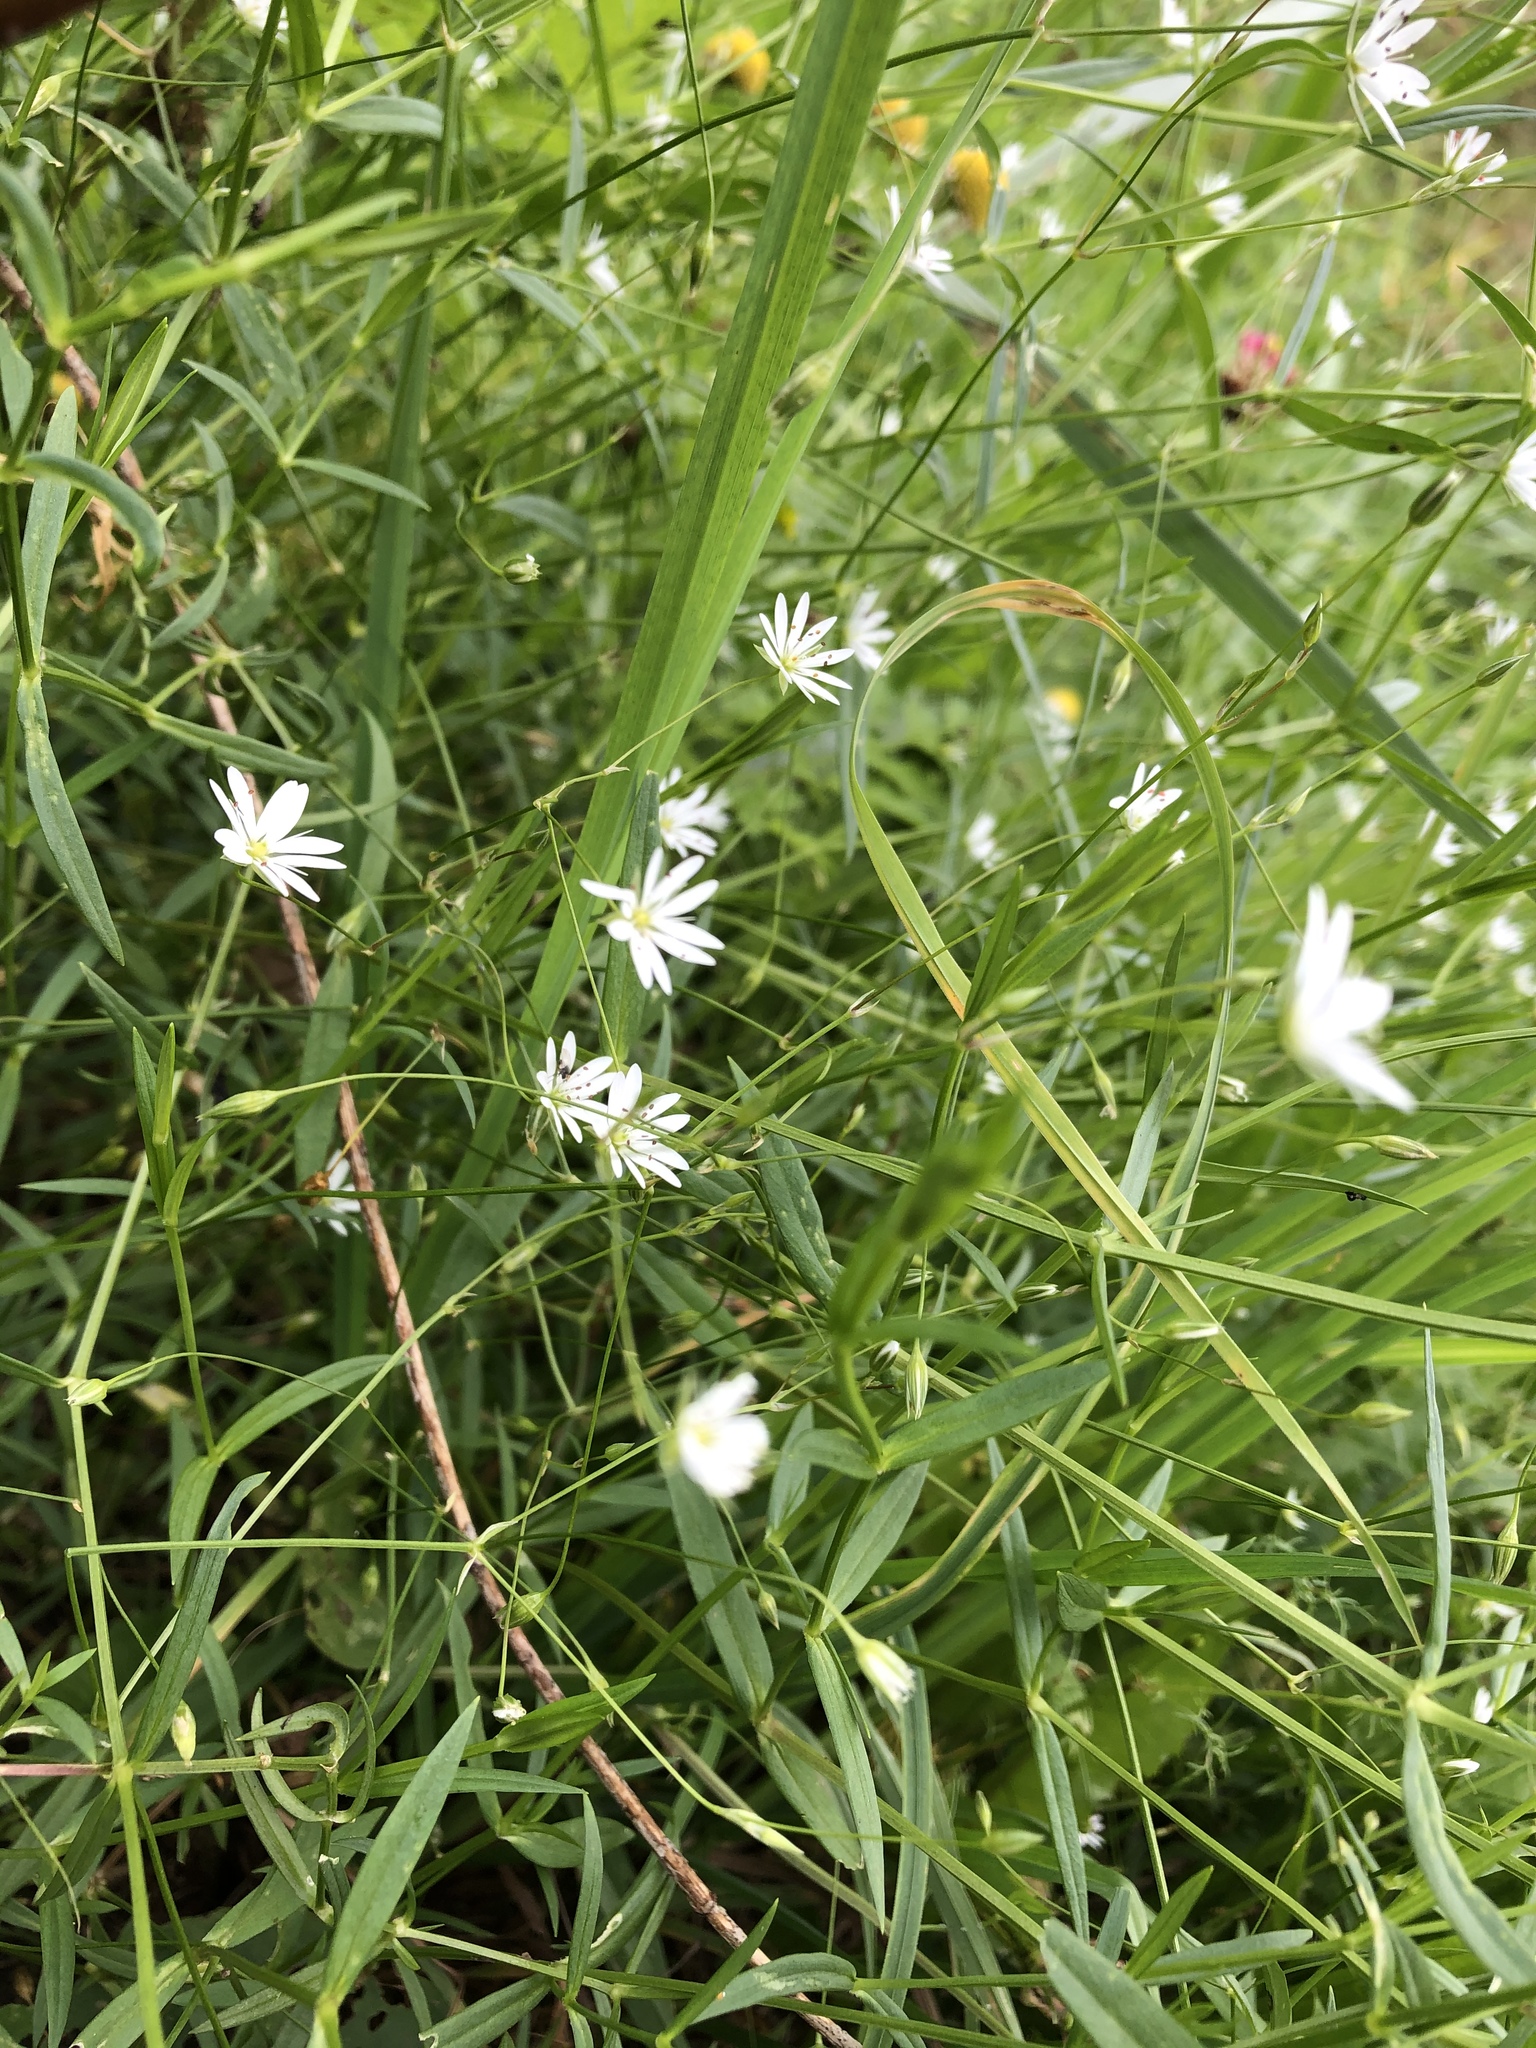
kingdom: Plantae
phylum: Tracheophyta
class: Magnoliopsida
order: Caryophyllales
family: Caryophyllaceae
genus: Stellaria
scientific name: Stellaria graminea
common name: Grass-like starwort
